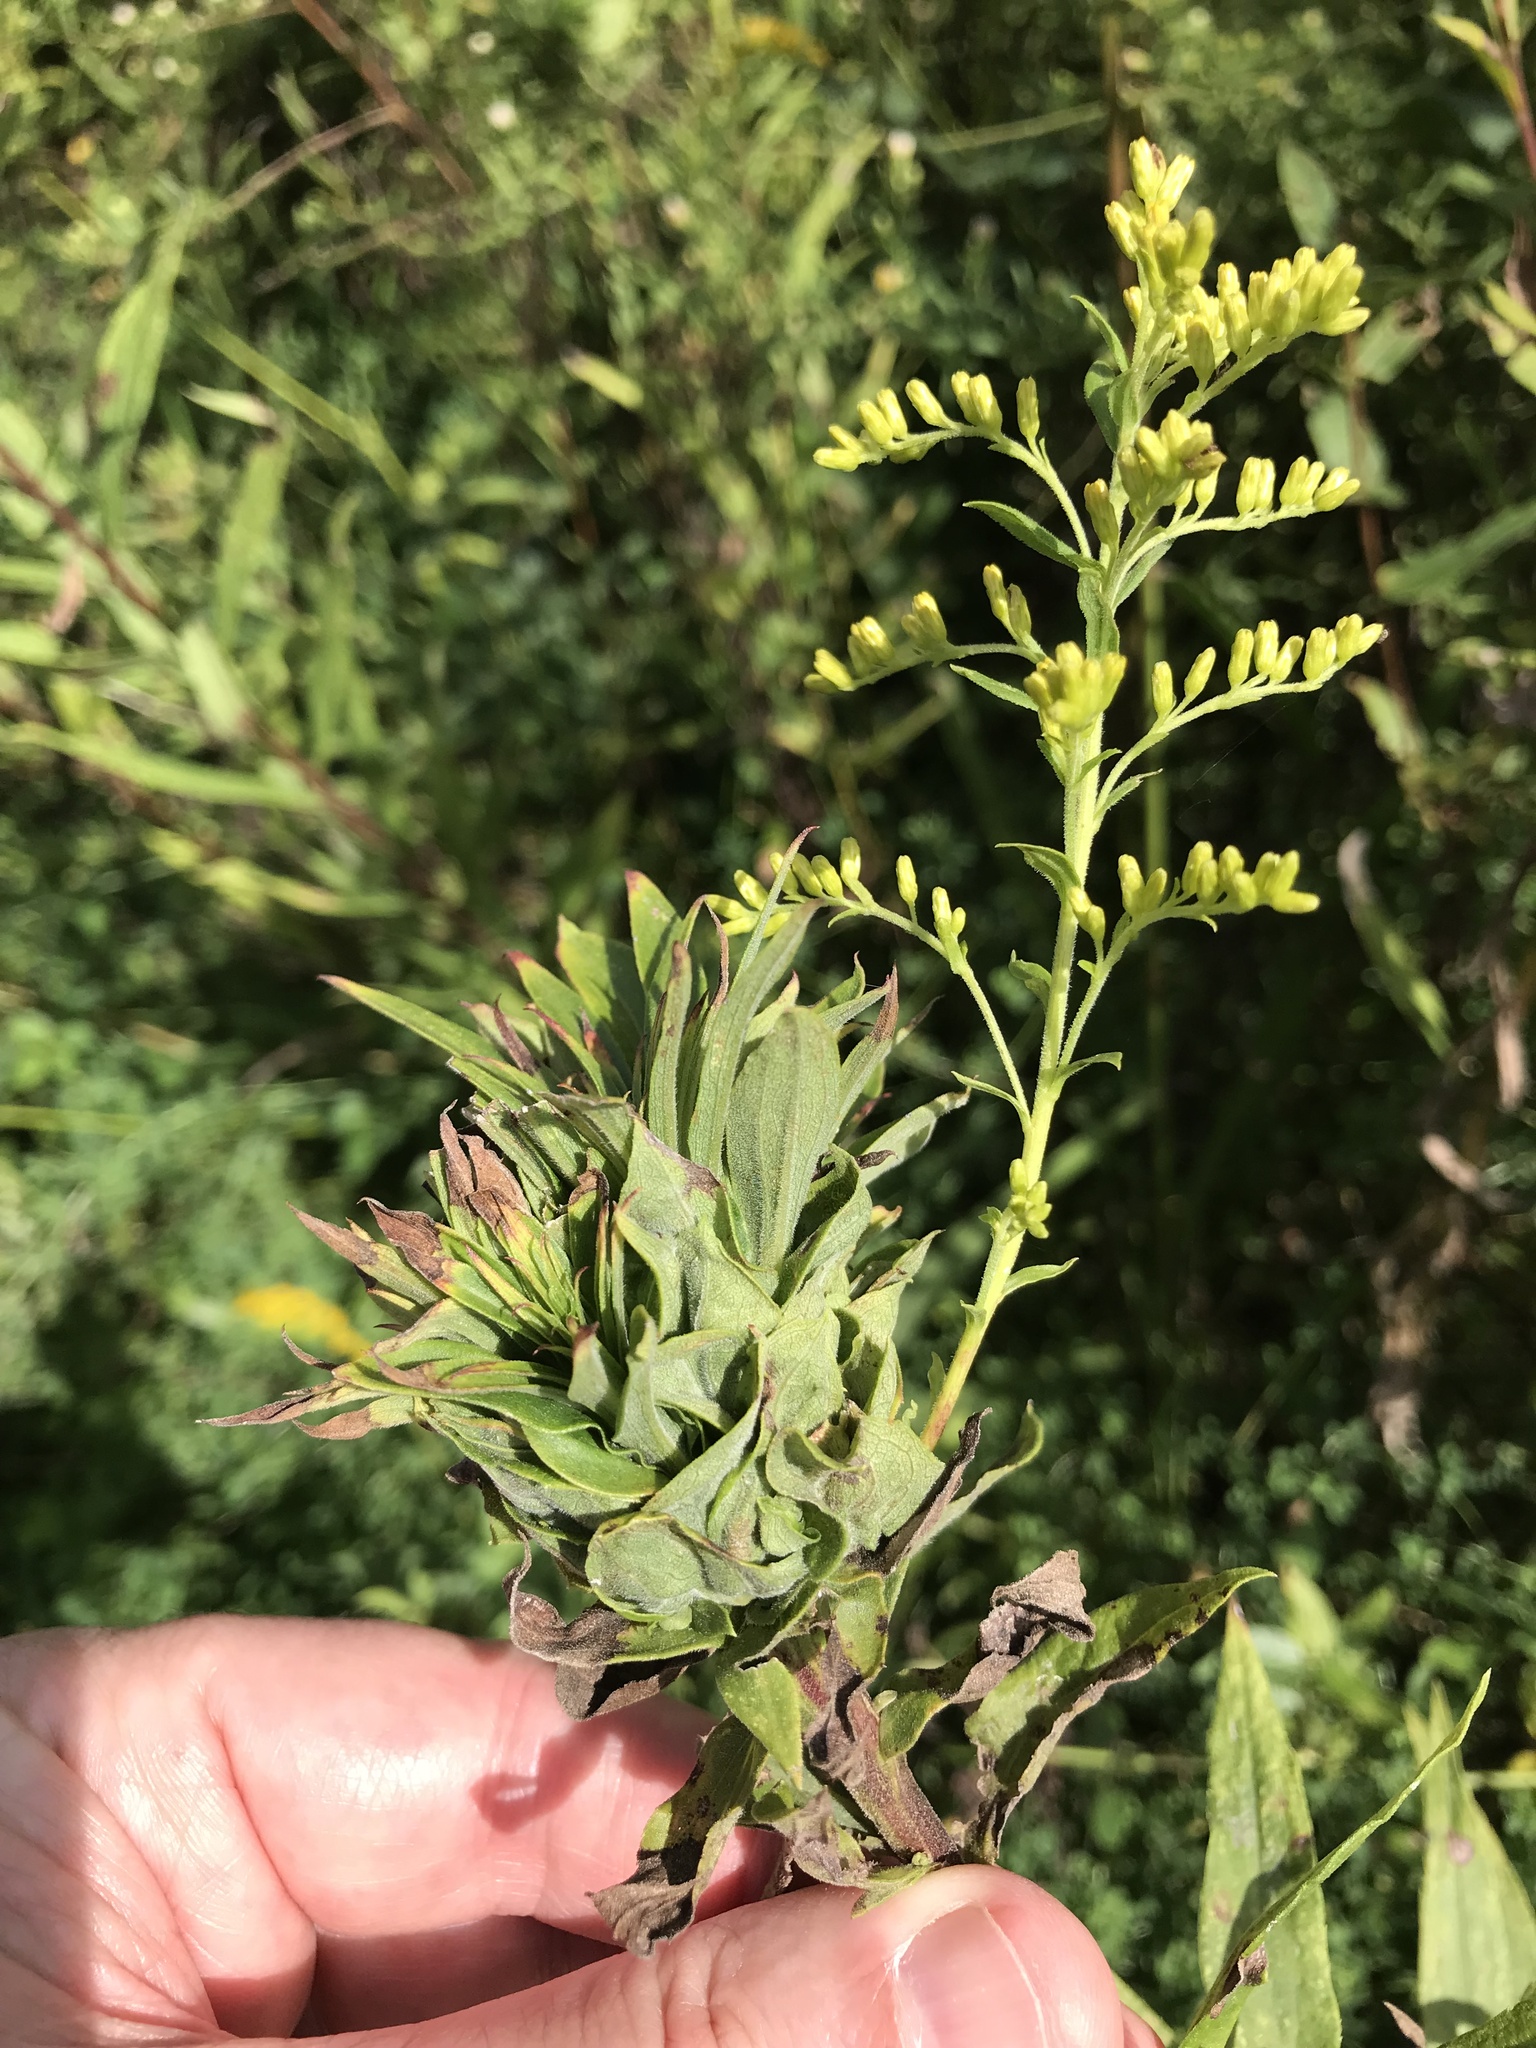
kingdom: Animalia
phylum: Arthropoda
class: Insecta
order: Diptera
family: Cecidomyiidae
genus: Rhopalomyia
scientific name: Rhopalomyia solidaginis
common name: Goldenrod bunch gall midge
